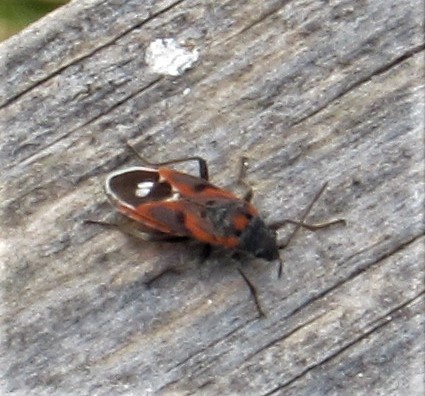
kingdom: Animalia
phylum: Arthropoda
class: Insecta
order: Hemiptera
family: Lygaeidae
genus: Lygaeus
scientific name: Lygaeus kalmii
